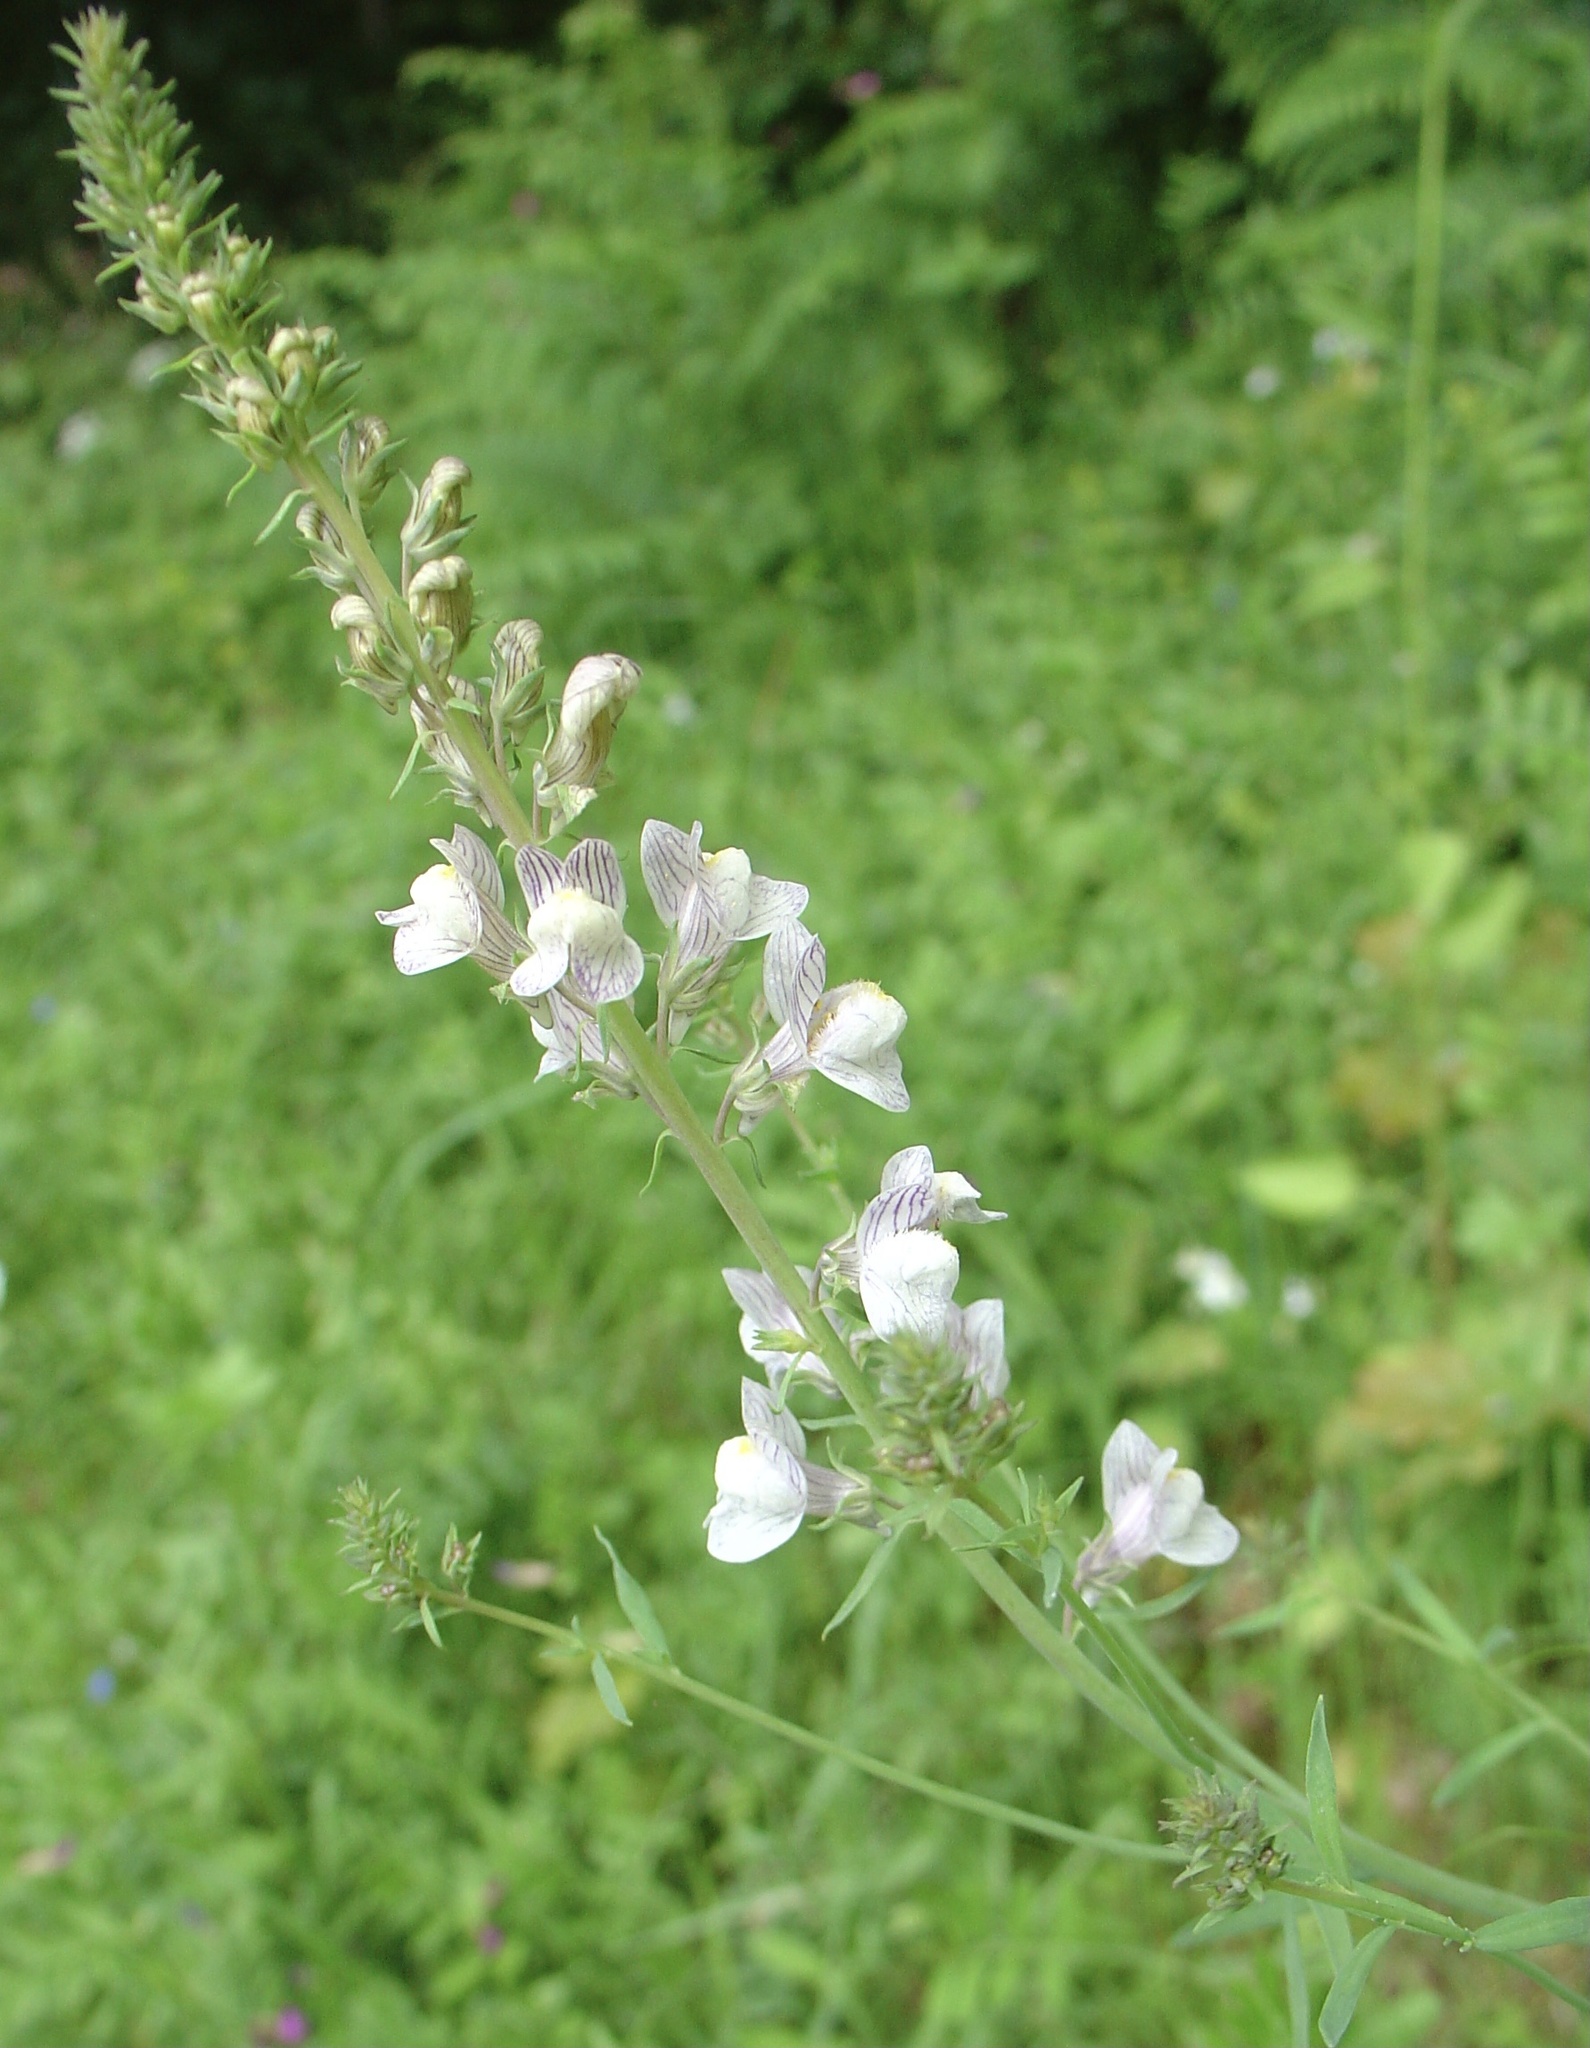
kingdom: Plantae
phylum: Tracheophyta
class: Magnoliopsida
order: Lamiales
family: Plantaginaceae
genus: Linaria
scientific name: Linaria repens
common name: Pale toadflax
